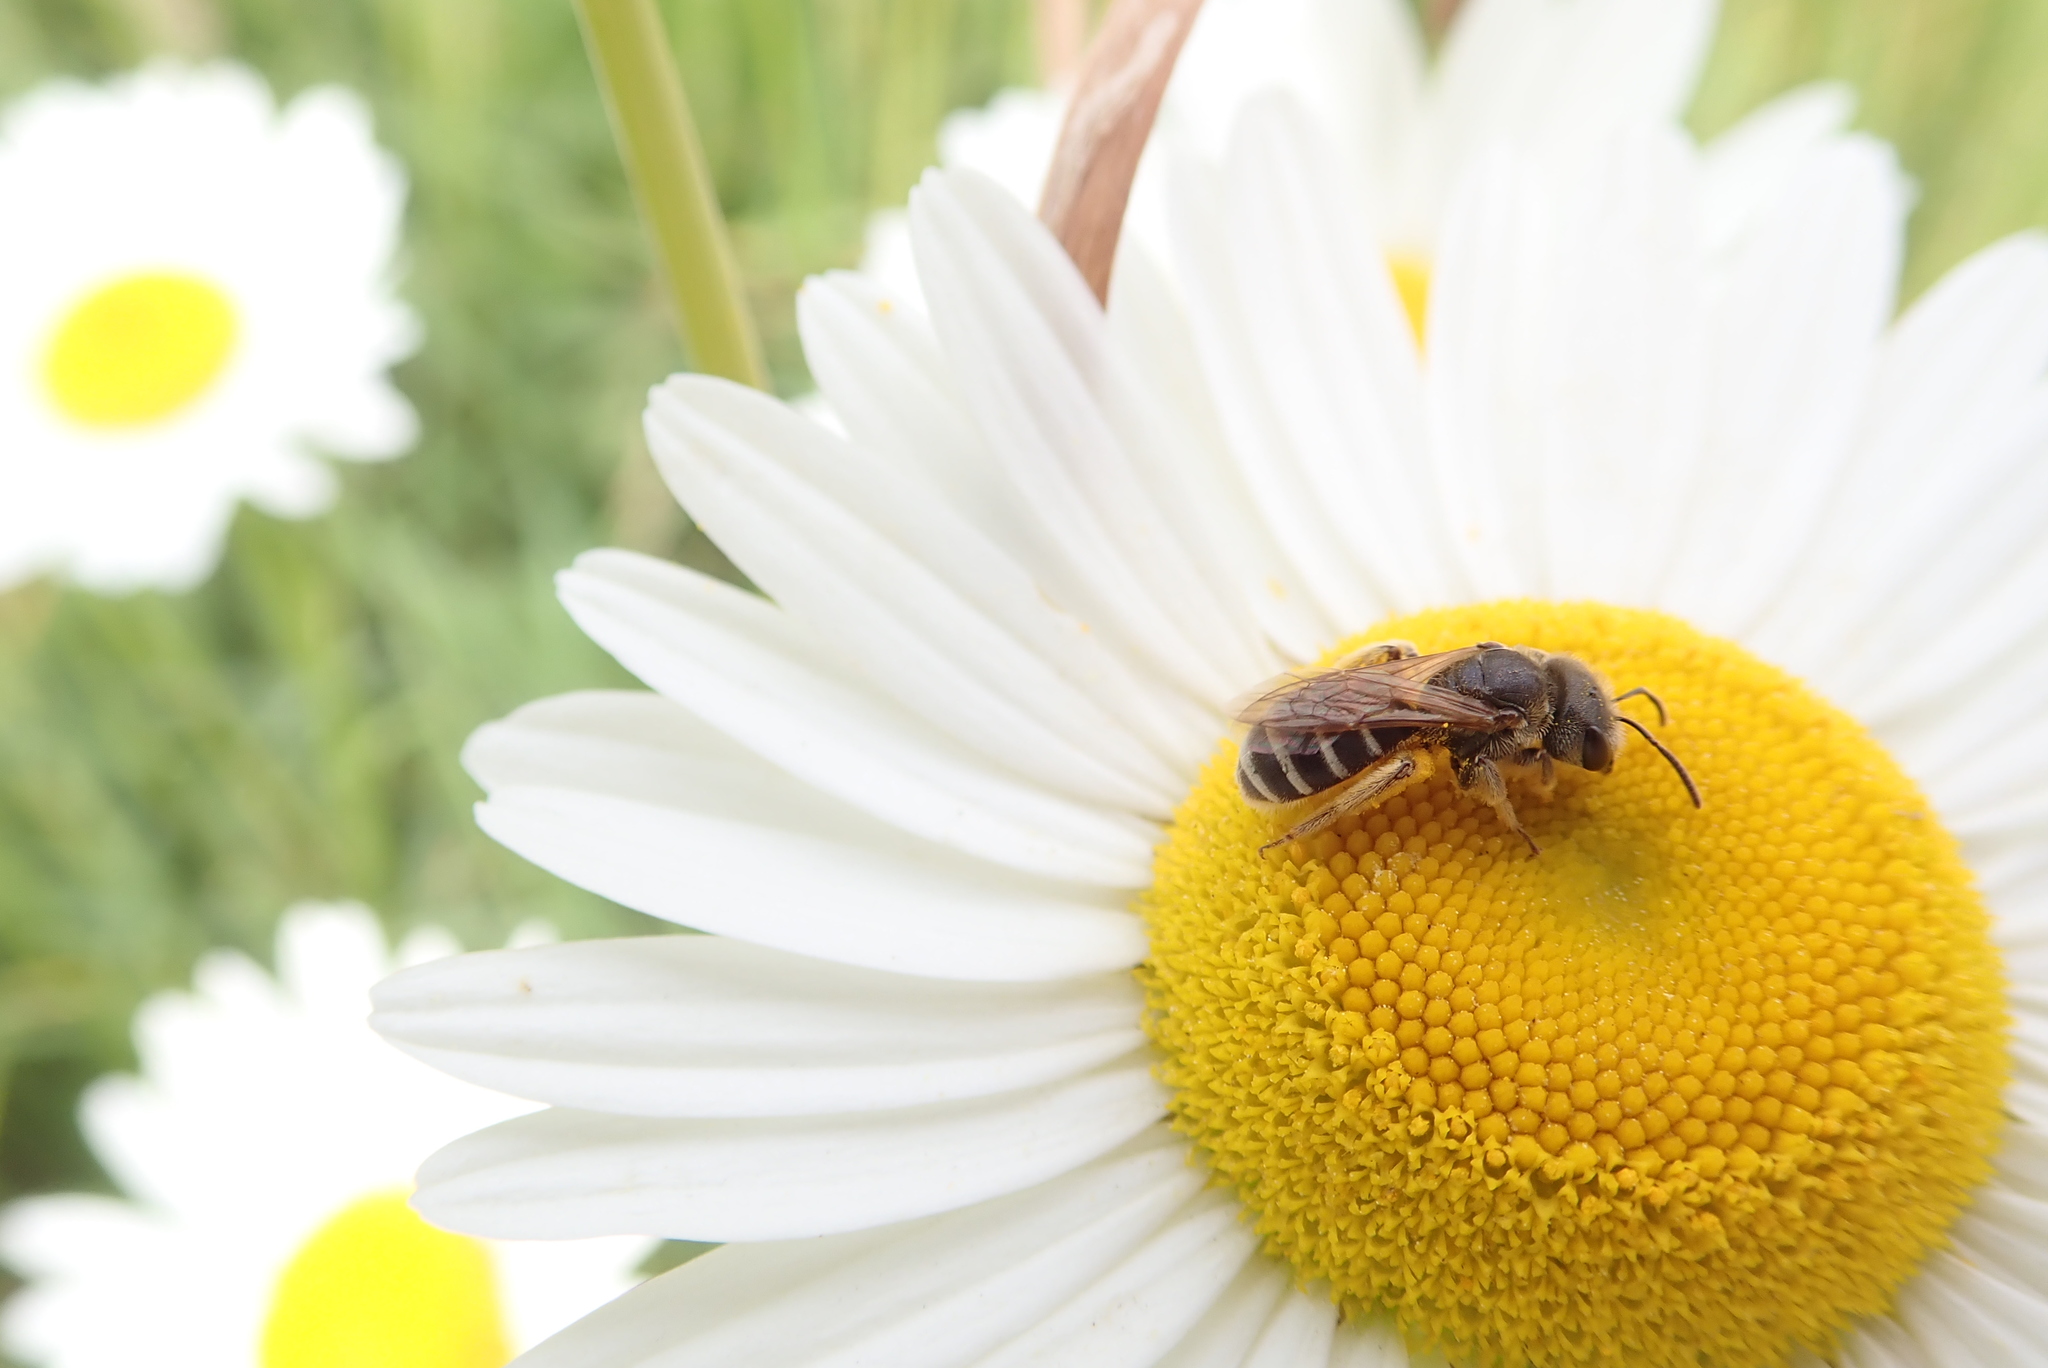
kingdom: Animalia
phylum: Arthropoda
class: Insecta
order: Hymenoptera
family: Halictidae
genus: Halictus
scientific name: Halictus ligatus
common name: Ligated furrow bee
